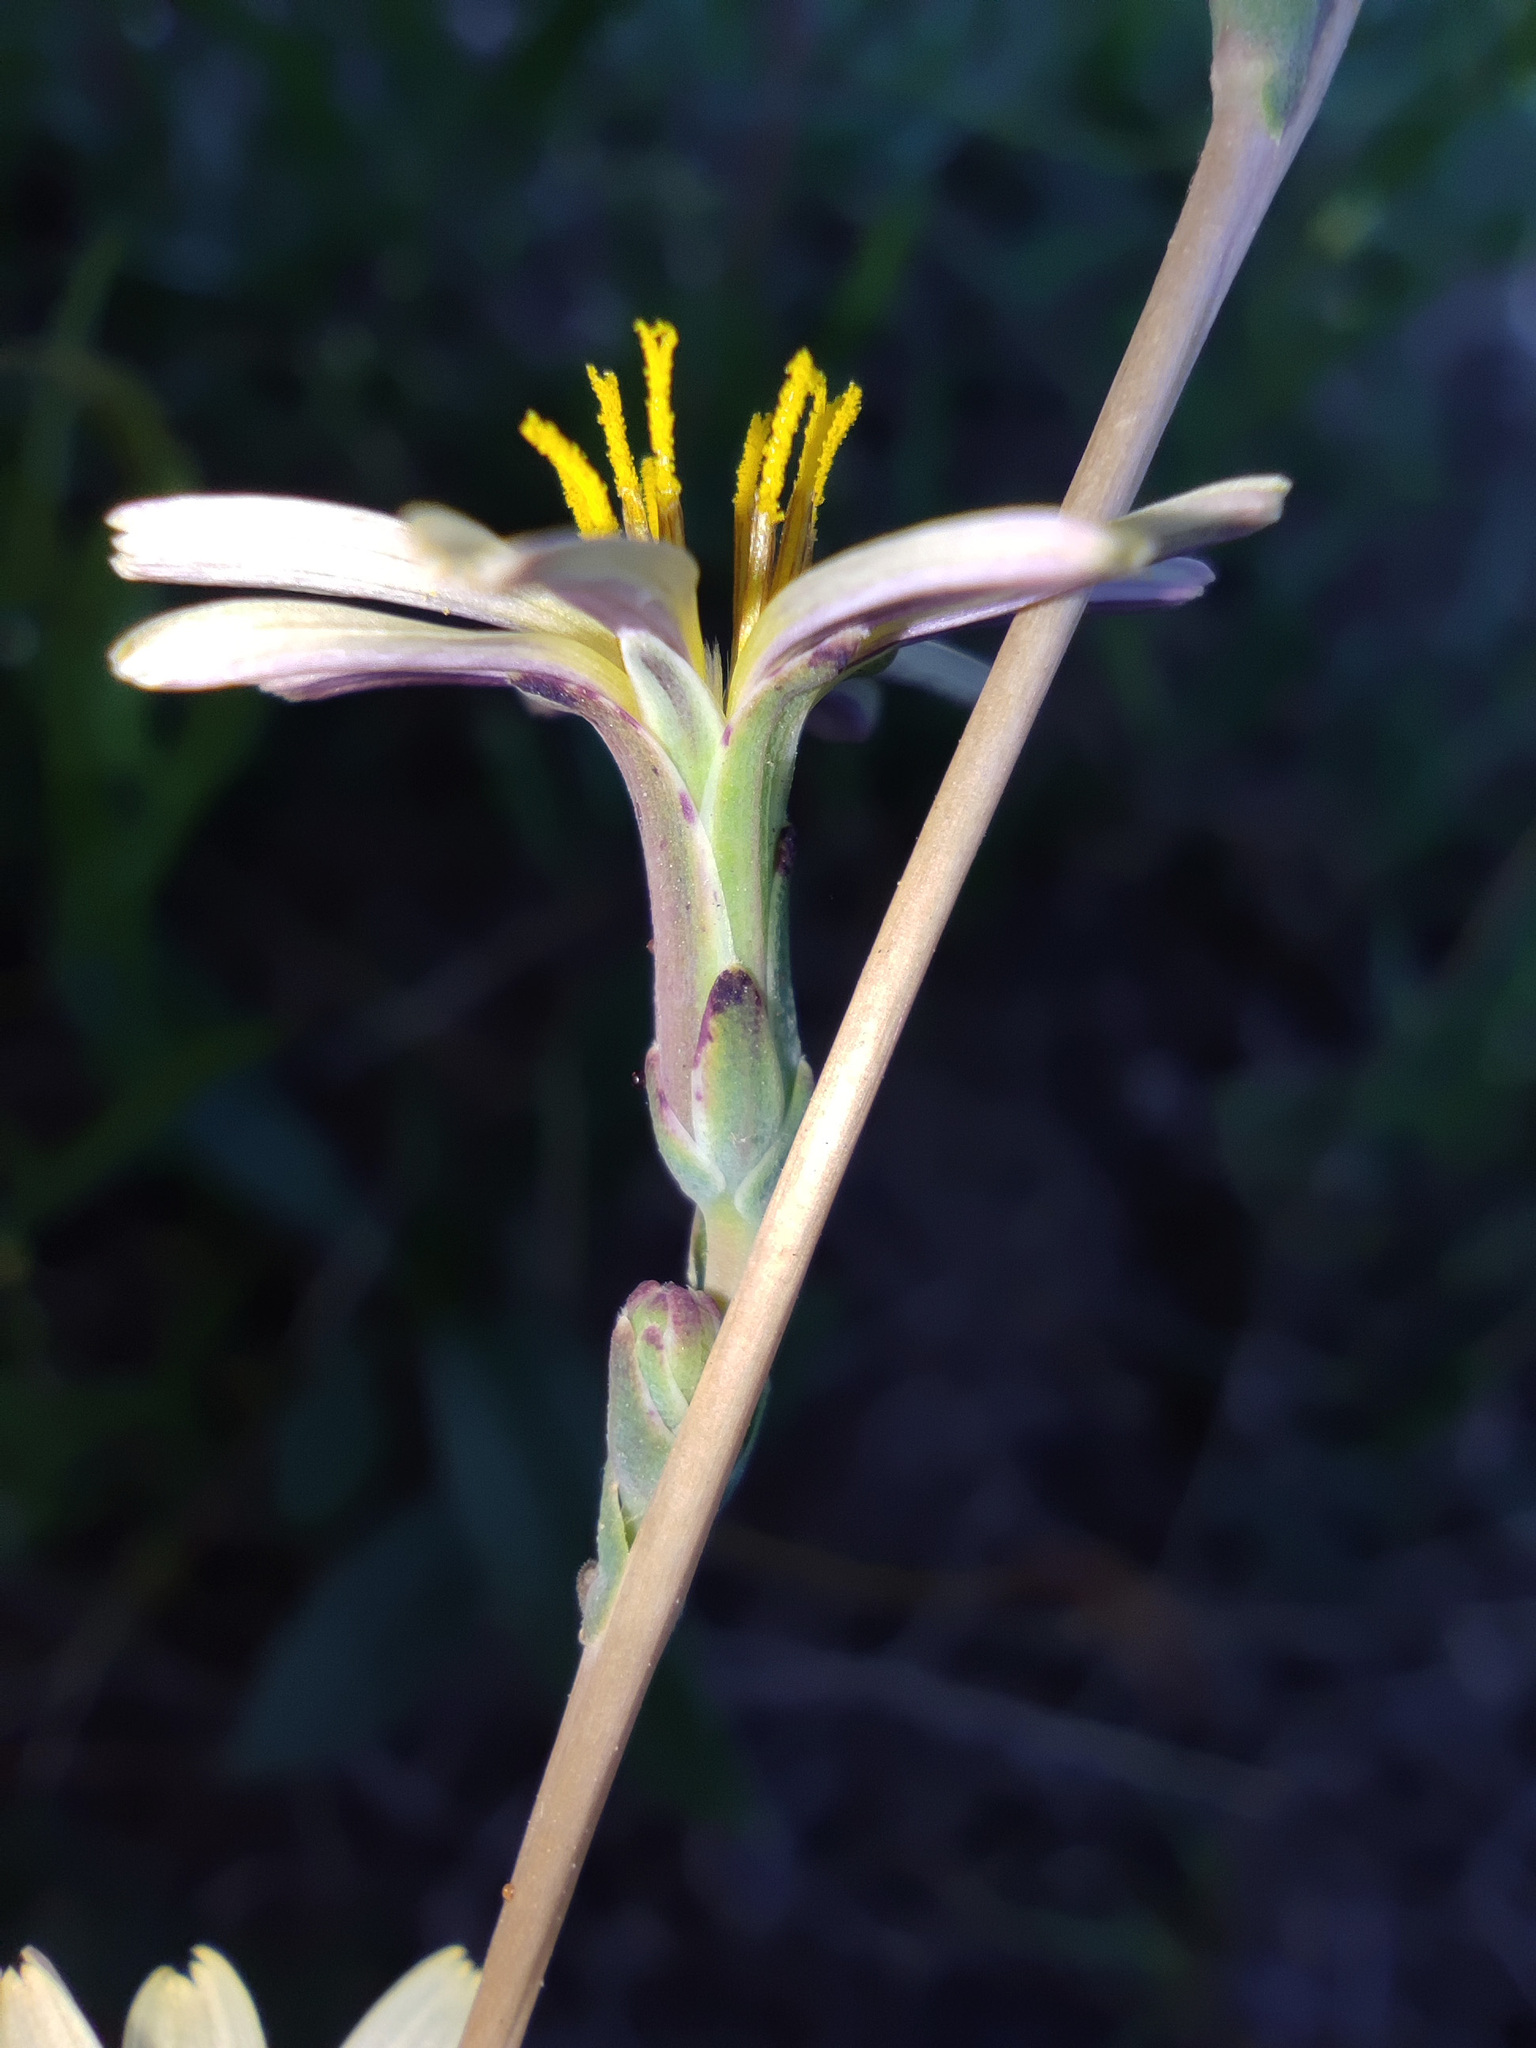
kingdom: Plantae
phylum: Tracheophyta
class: Magnoliopsida
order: Asterales
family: Asteraceae
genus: Lactuca
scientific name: Lactuca saligna
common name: Wild lettuce
